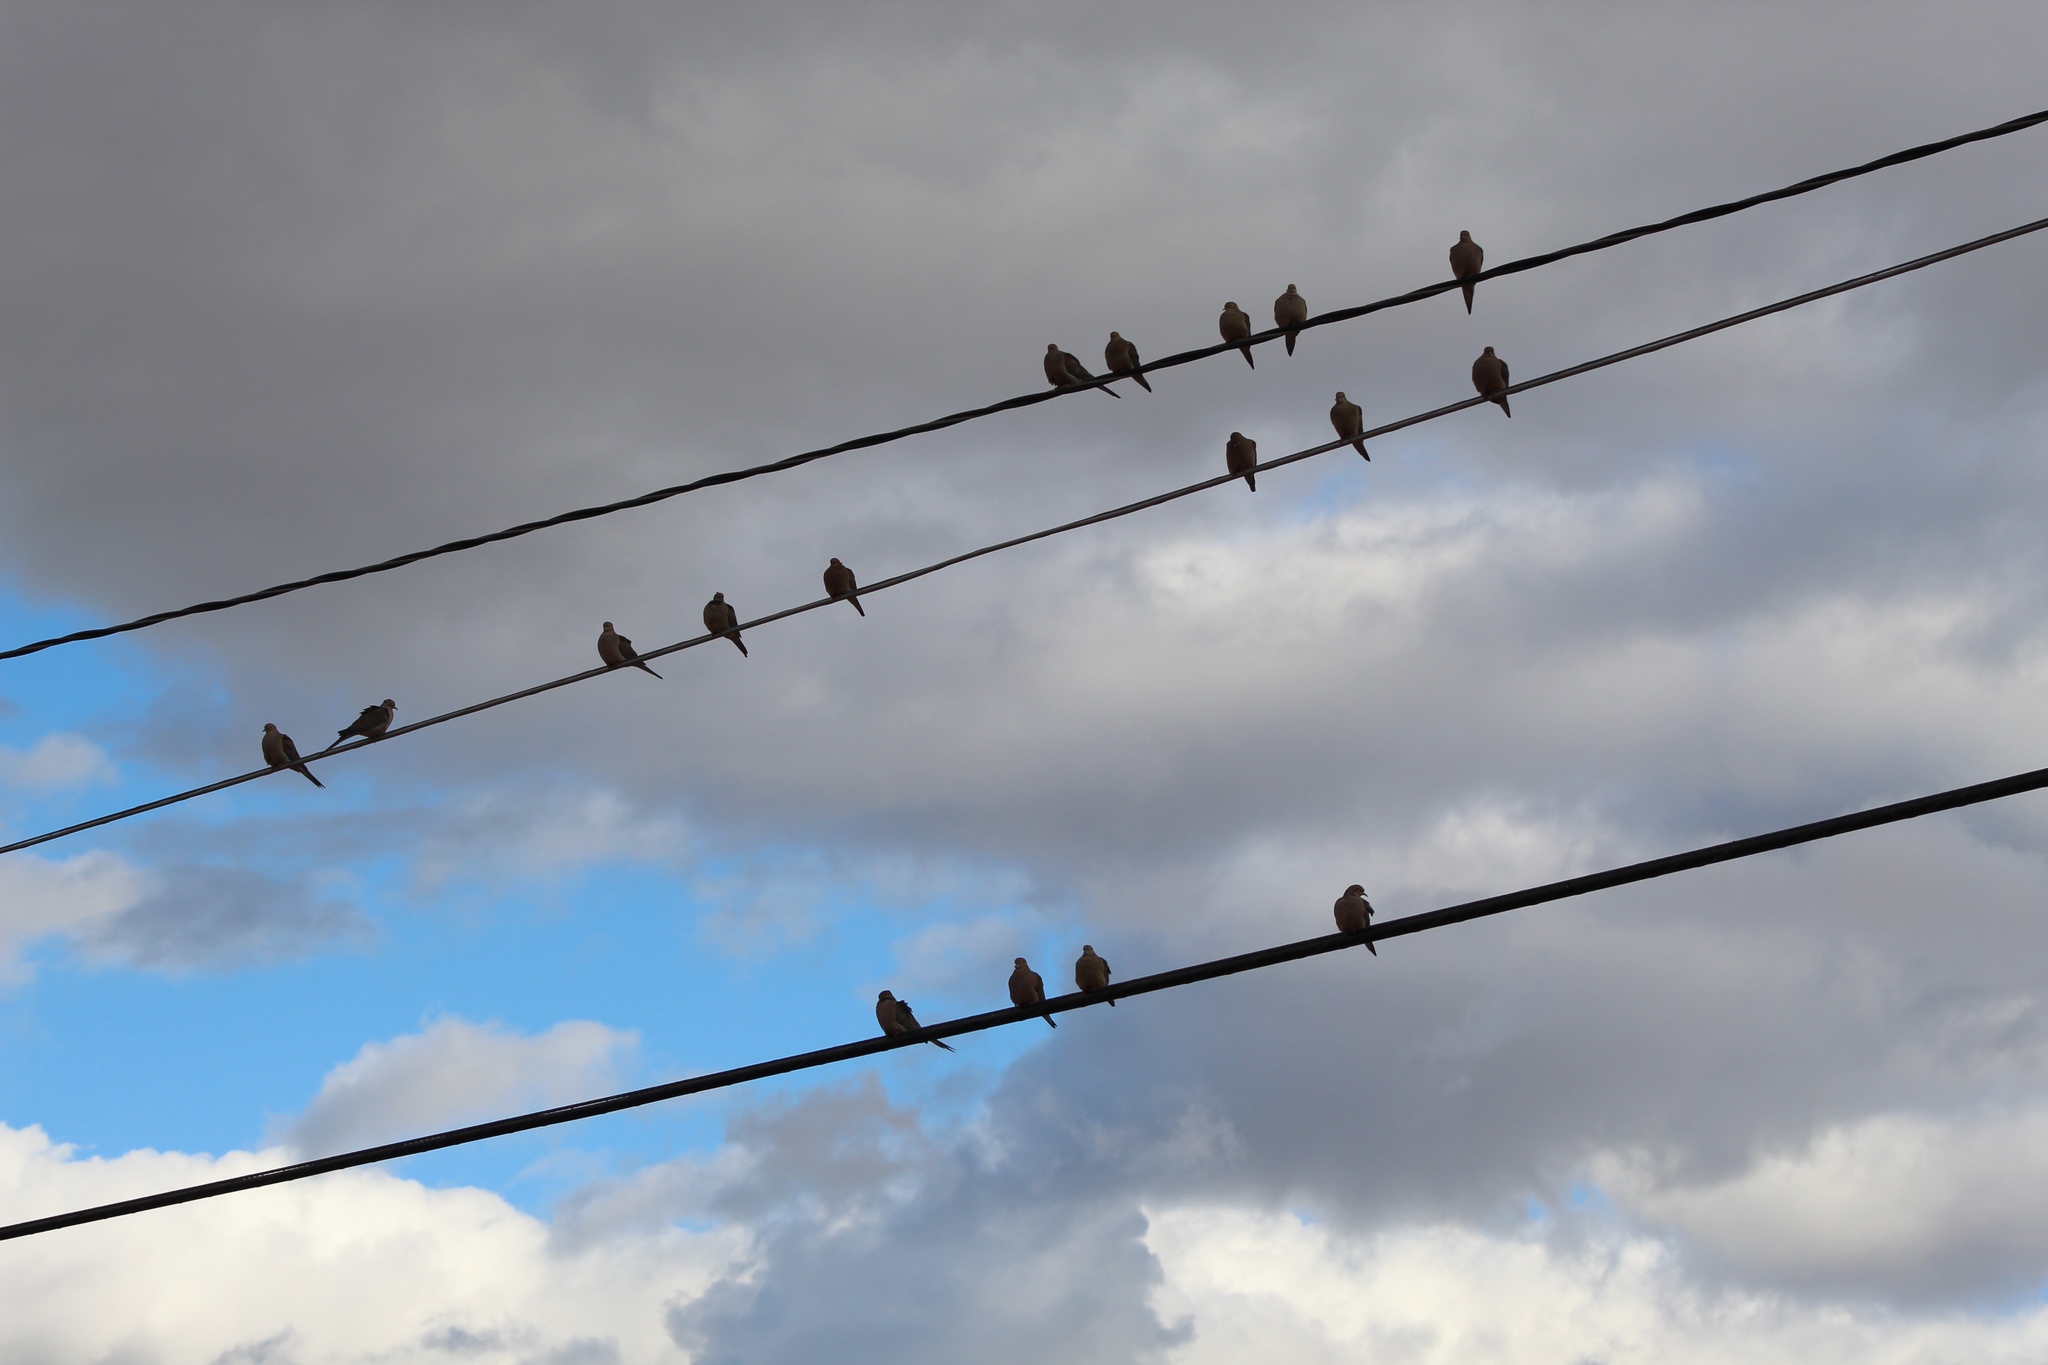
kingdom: Animalia
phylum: Chordata
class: Aves
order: Columbiformes
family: Columbidae
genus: Zenaida
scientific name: Zenaida macroura
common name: Mourning dove
